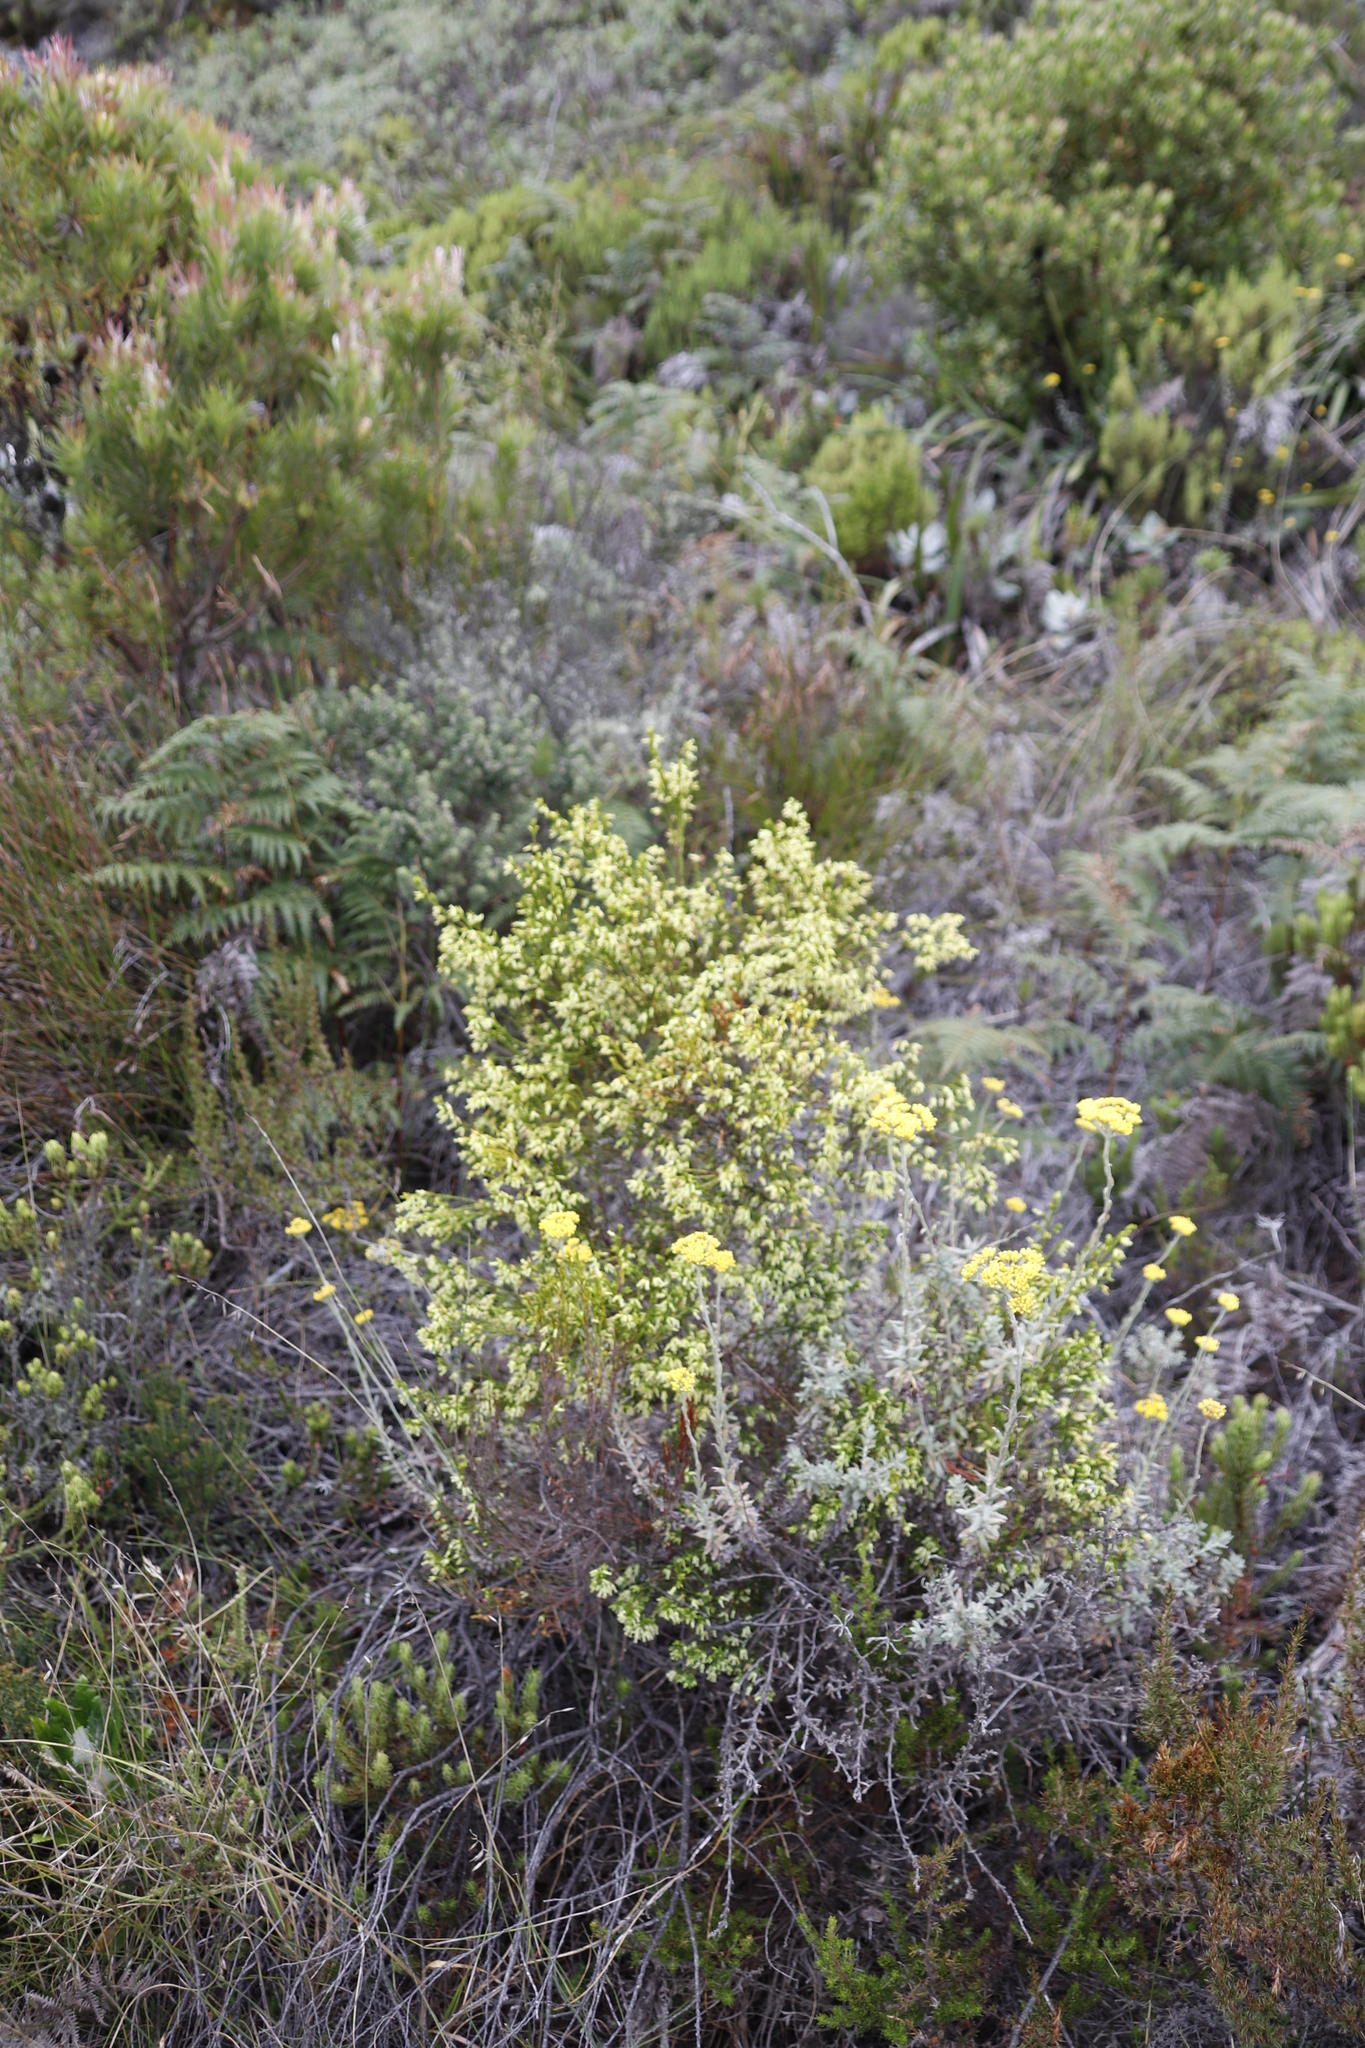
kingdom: Plantae
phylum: Tracheophyta
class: Magnoliopsida
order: Ericales
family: Ericaceae
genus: Erica
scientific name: Erica lutea
